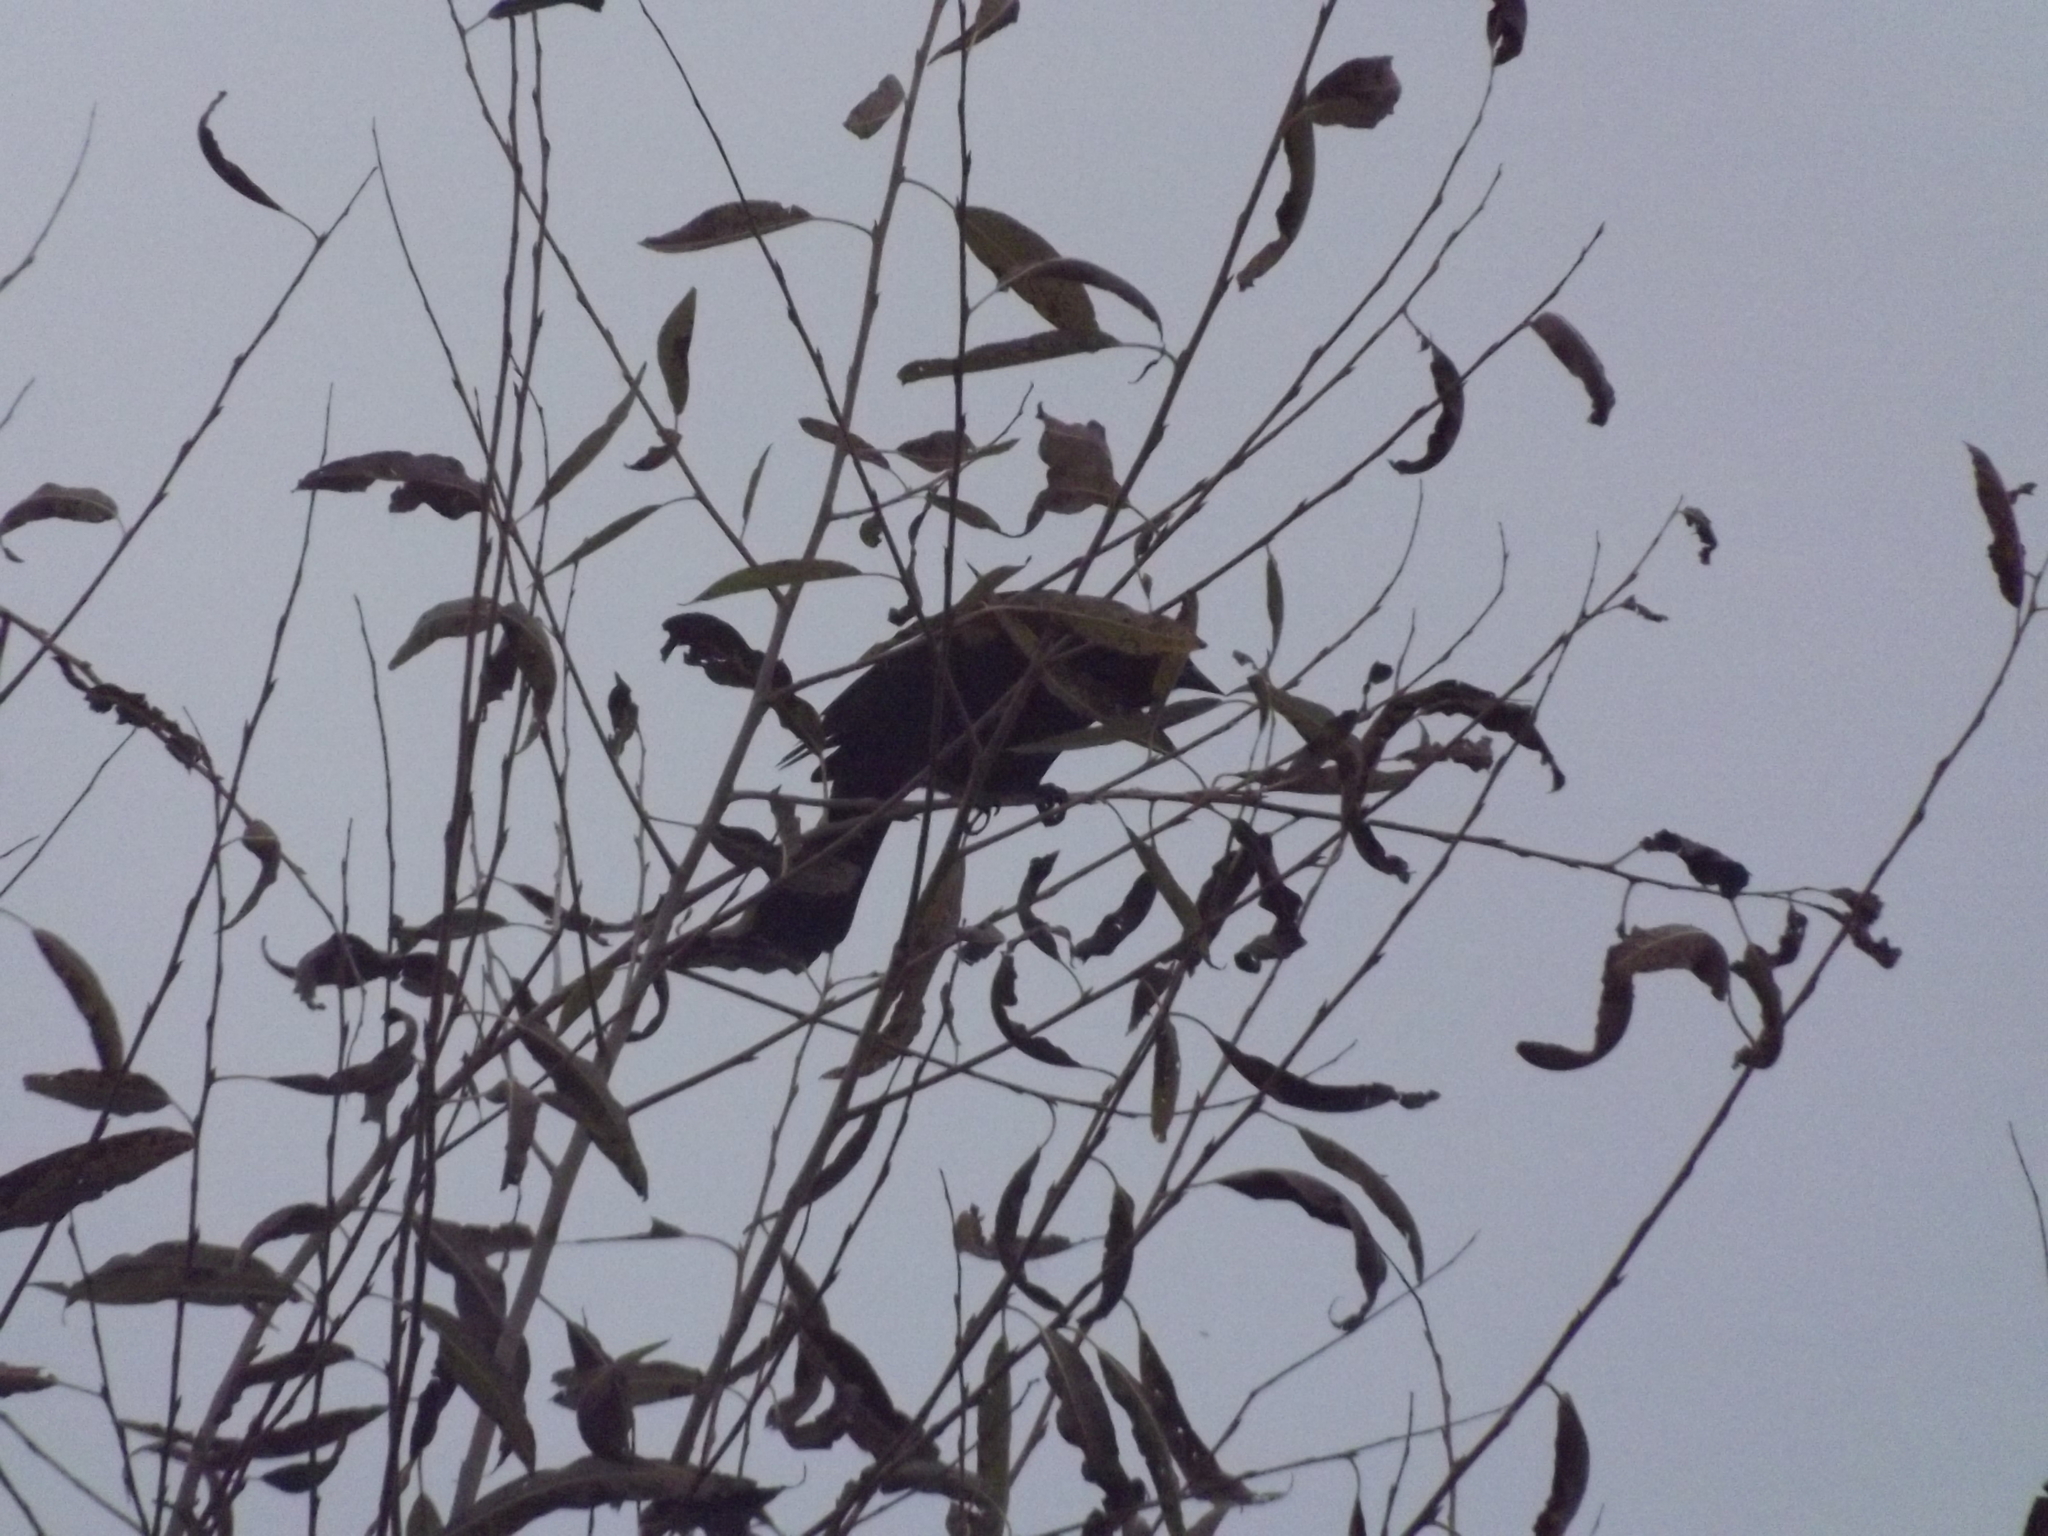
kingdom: Animalia
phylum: Chordata
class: Aves
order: Passeriformes
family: Icteridae
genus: Agelaius
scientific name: Agelaius phoeniceus
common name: Red-winged blackbird
